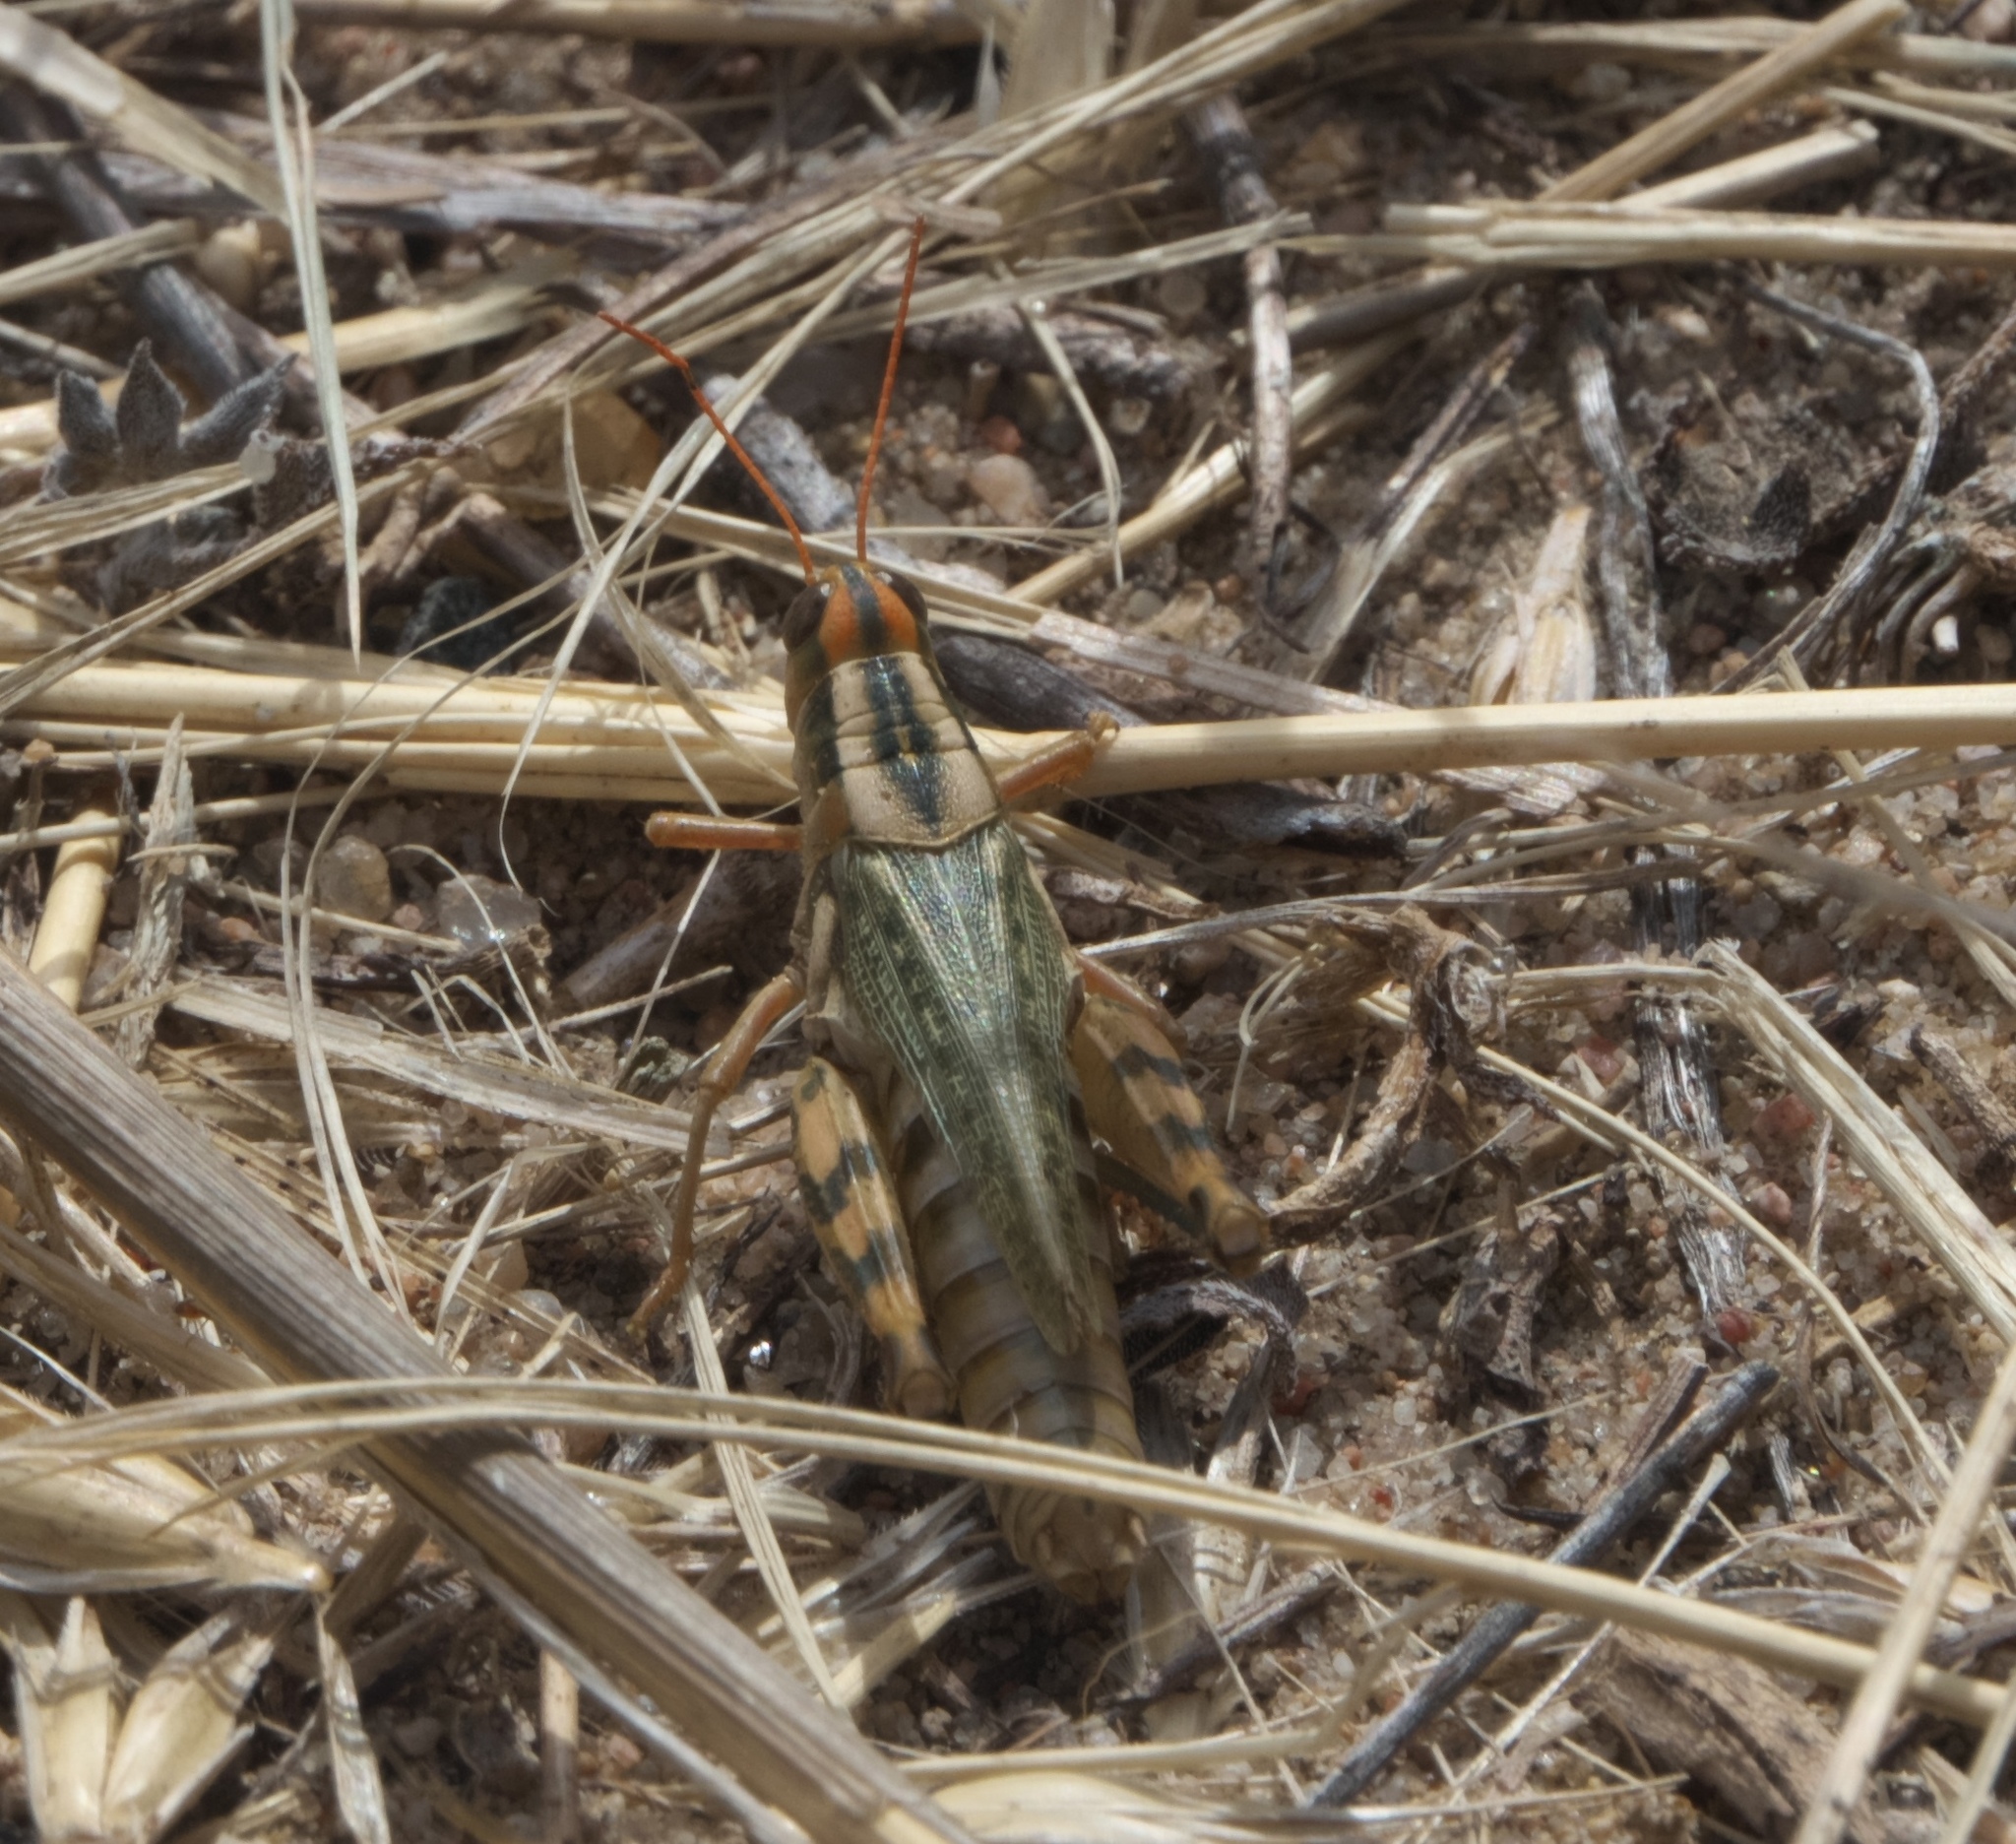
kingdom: Animalia
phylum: Arthropoda
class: Insecta
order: Orthoptera
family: Acrididae
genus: Aeoloplides
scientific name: Aeoloplides turnbulli
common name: Russianthistle grasshopper
